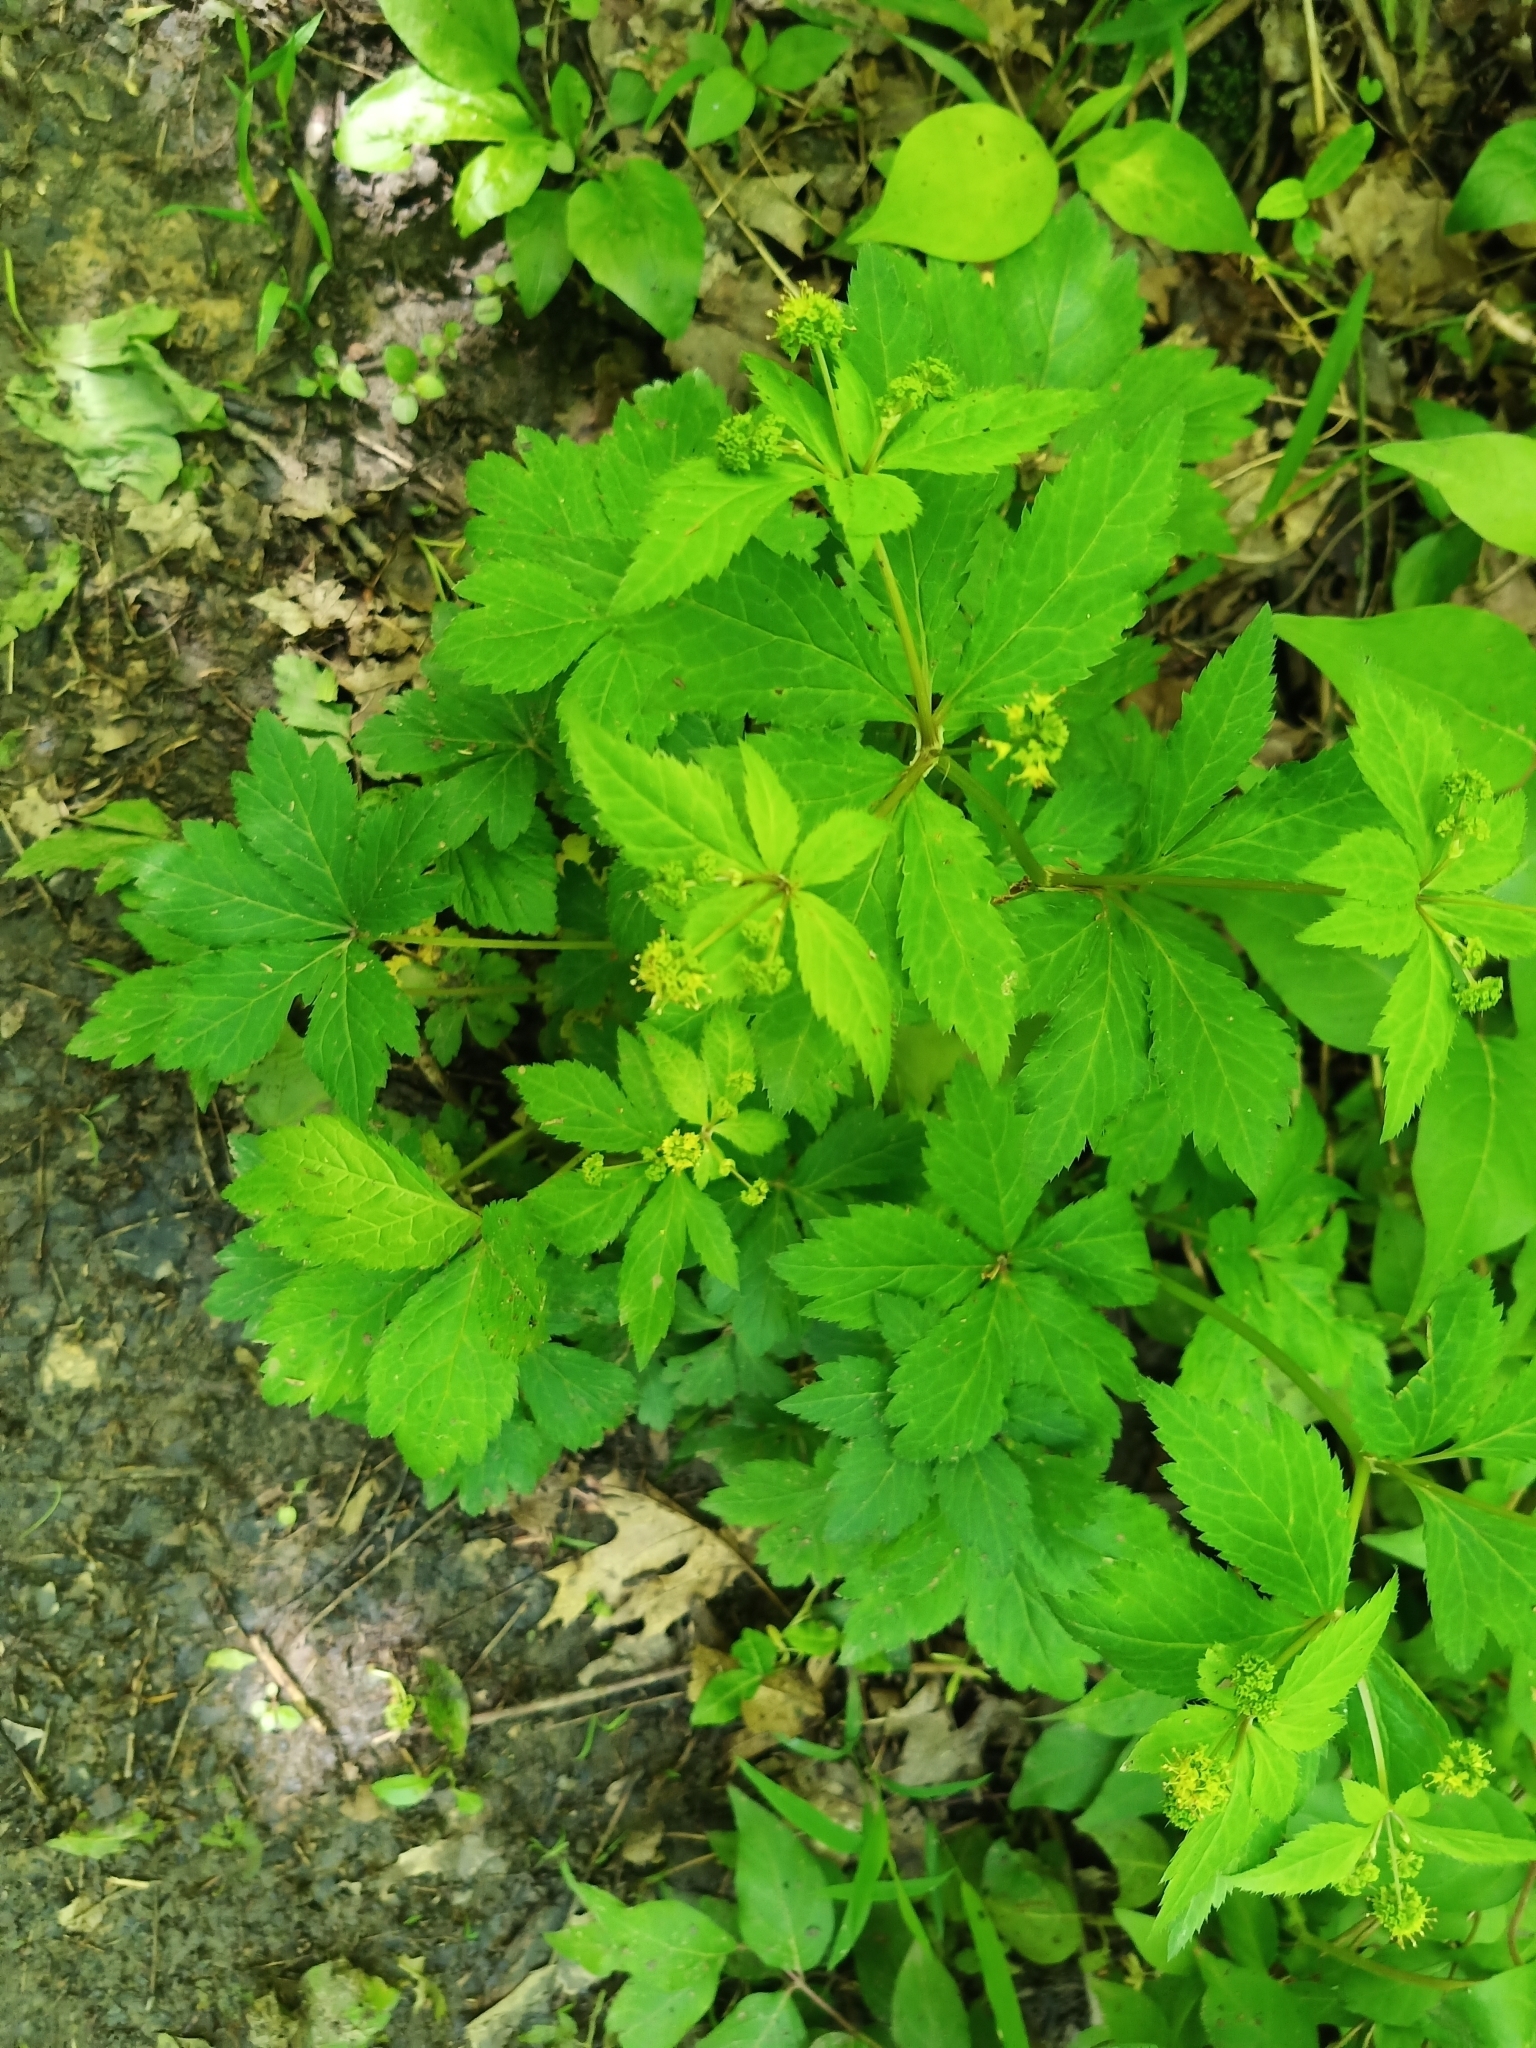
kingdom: Plantae
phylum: Tracheophyta
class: Magnoliopsida
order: Ranunculales
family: Ranunculaceae
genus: Ranunculus
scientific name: Ranunculus recurvatus
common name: Blisterwort
